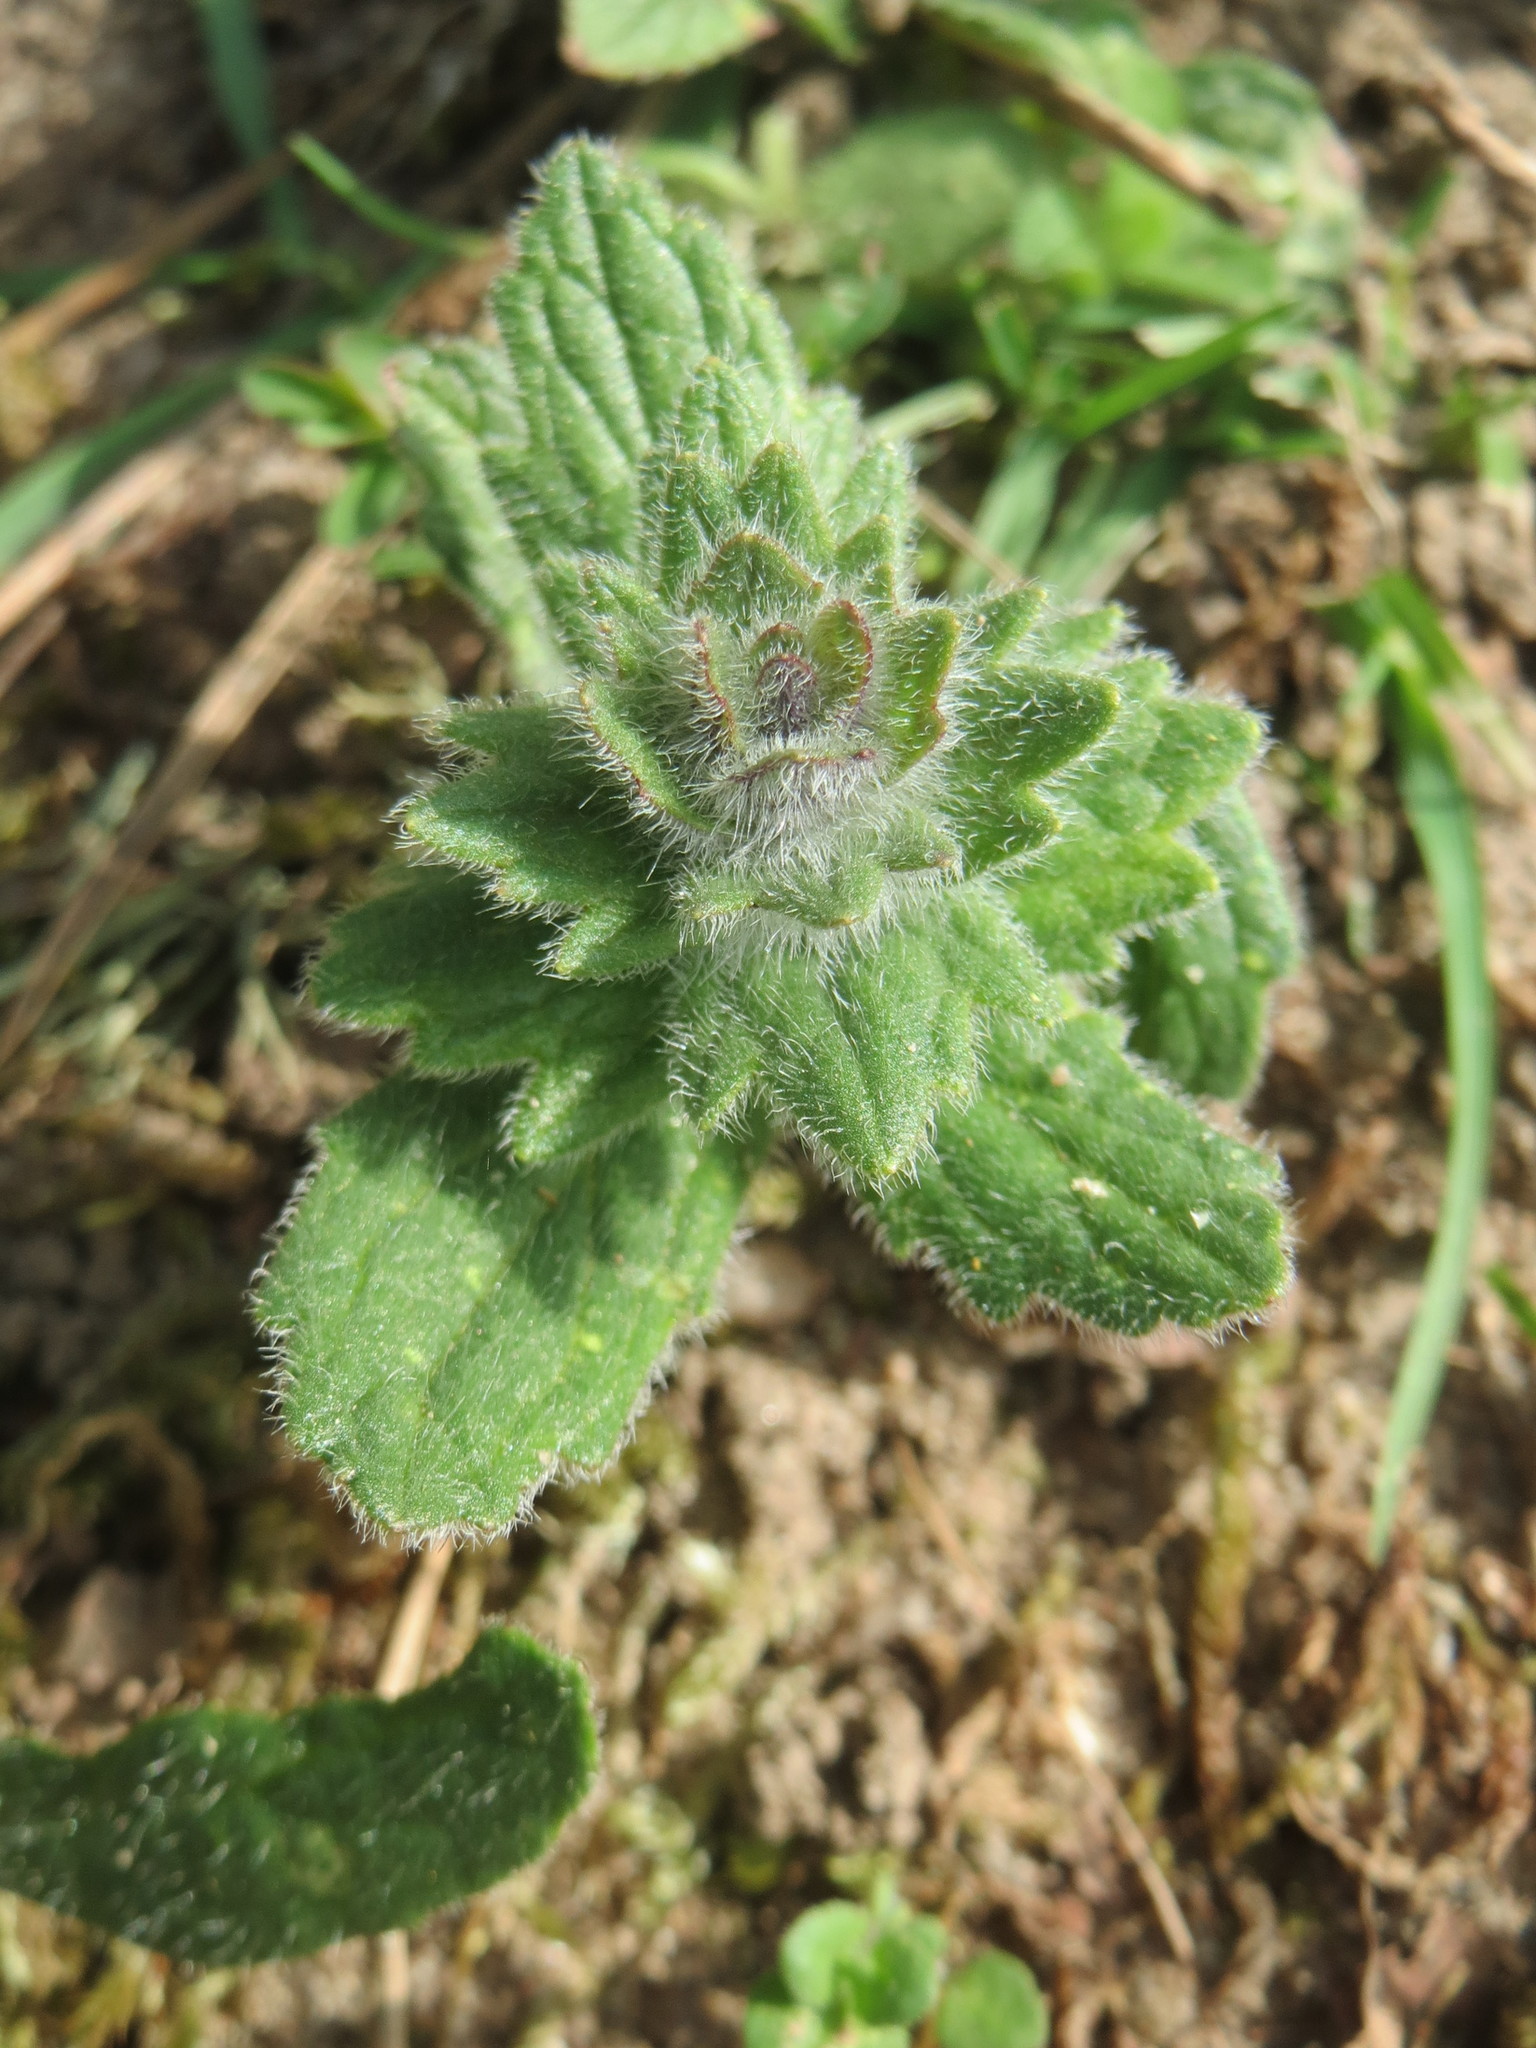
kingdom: Plantae
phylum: Tracheophyta
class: Magnoliopsida
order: Lamiales
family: Lamiaceae
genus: Ajuga
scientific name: Ajuga genevensis
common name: Blue bugle
